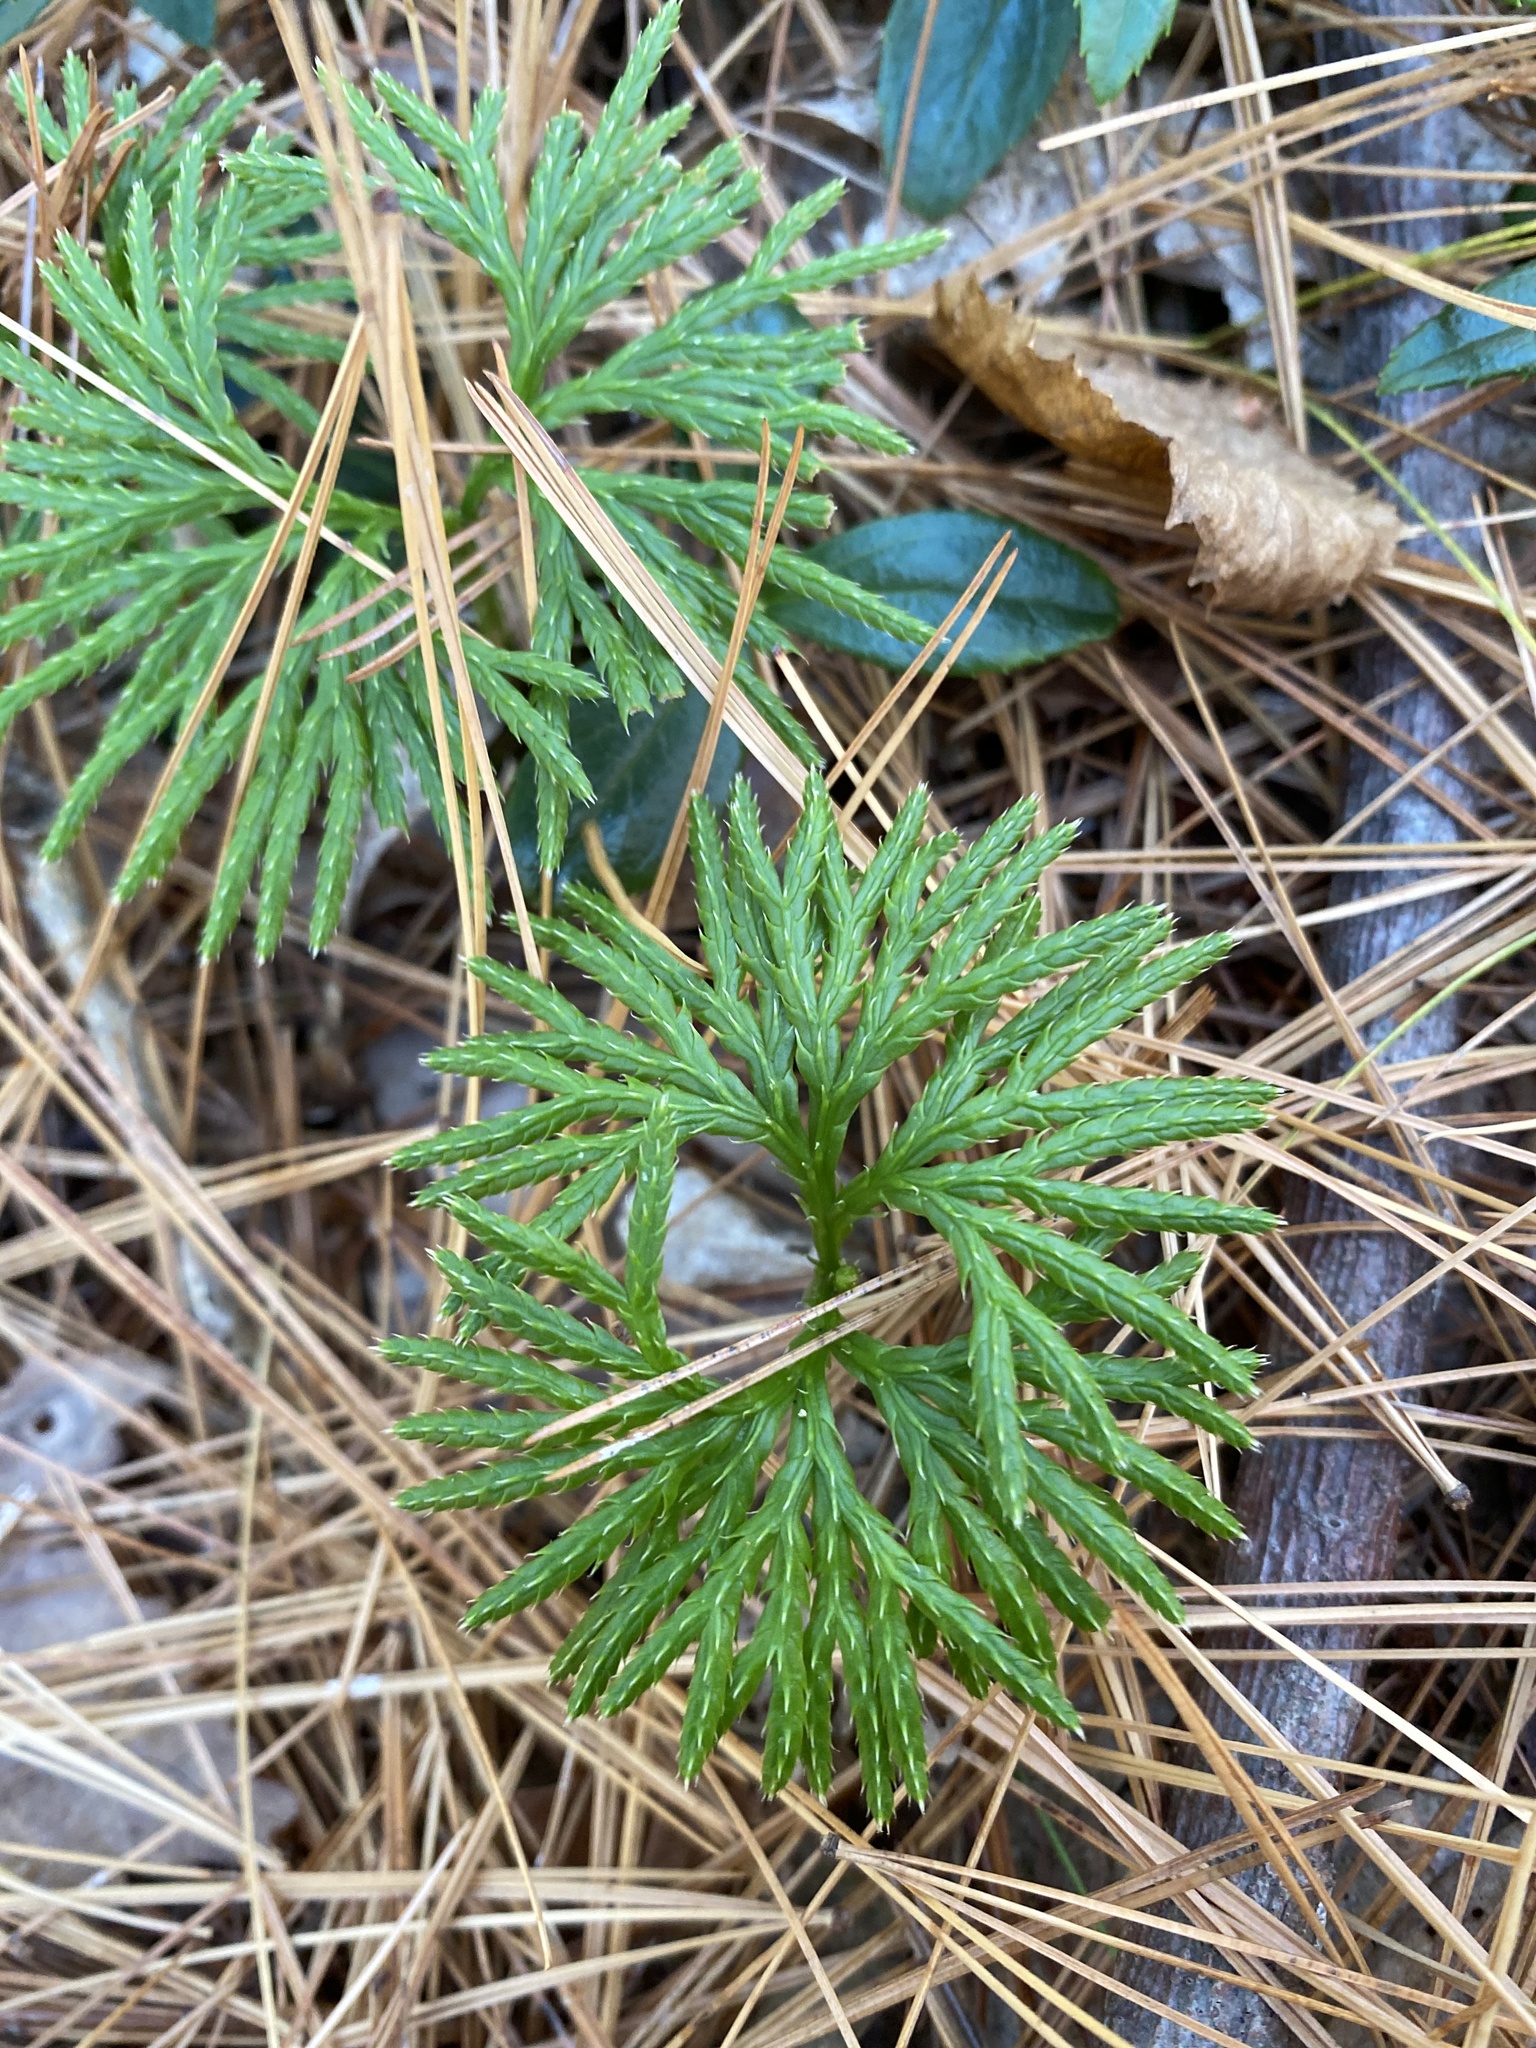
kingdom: Plantae
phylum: Tracheophyta
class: Lycopodiopsida
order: Lycopodiales
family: Lycopodiaceae
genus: Diphasiastrum
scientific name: Diphasiastrum digitatum
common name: Southern running-pine
